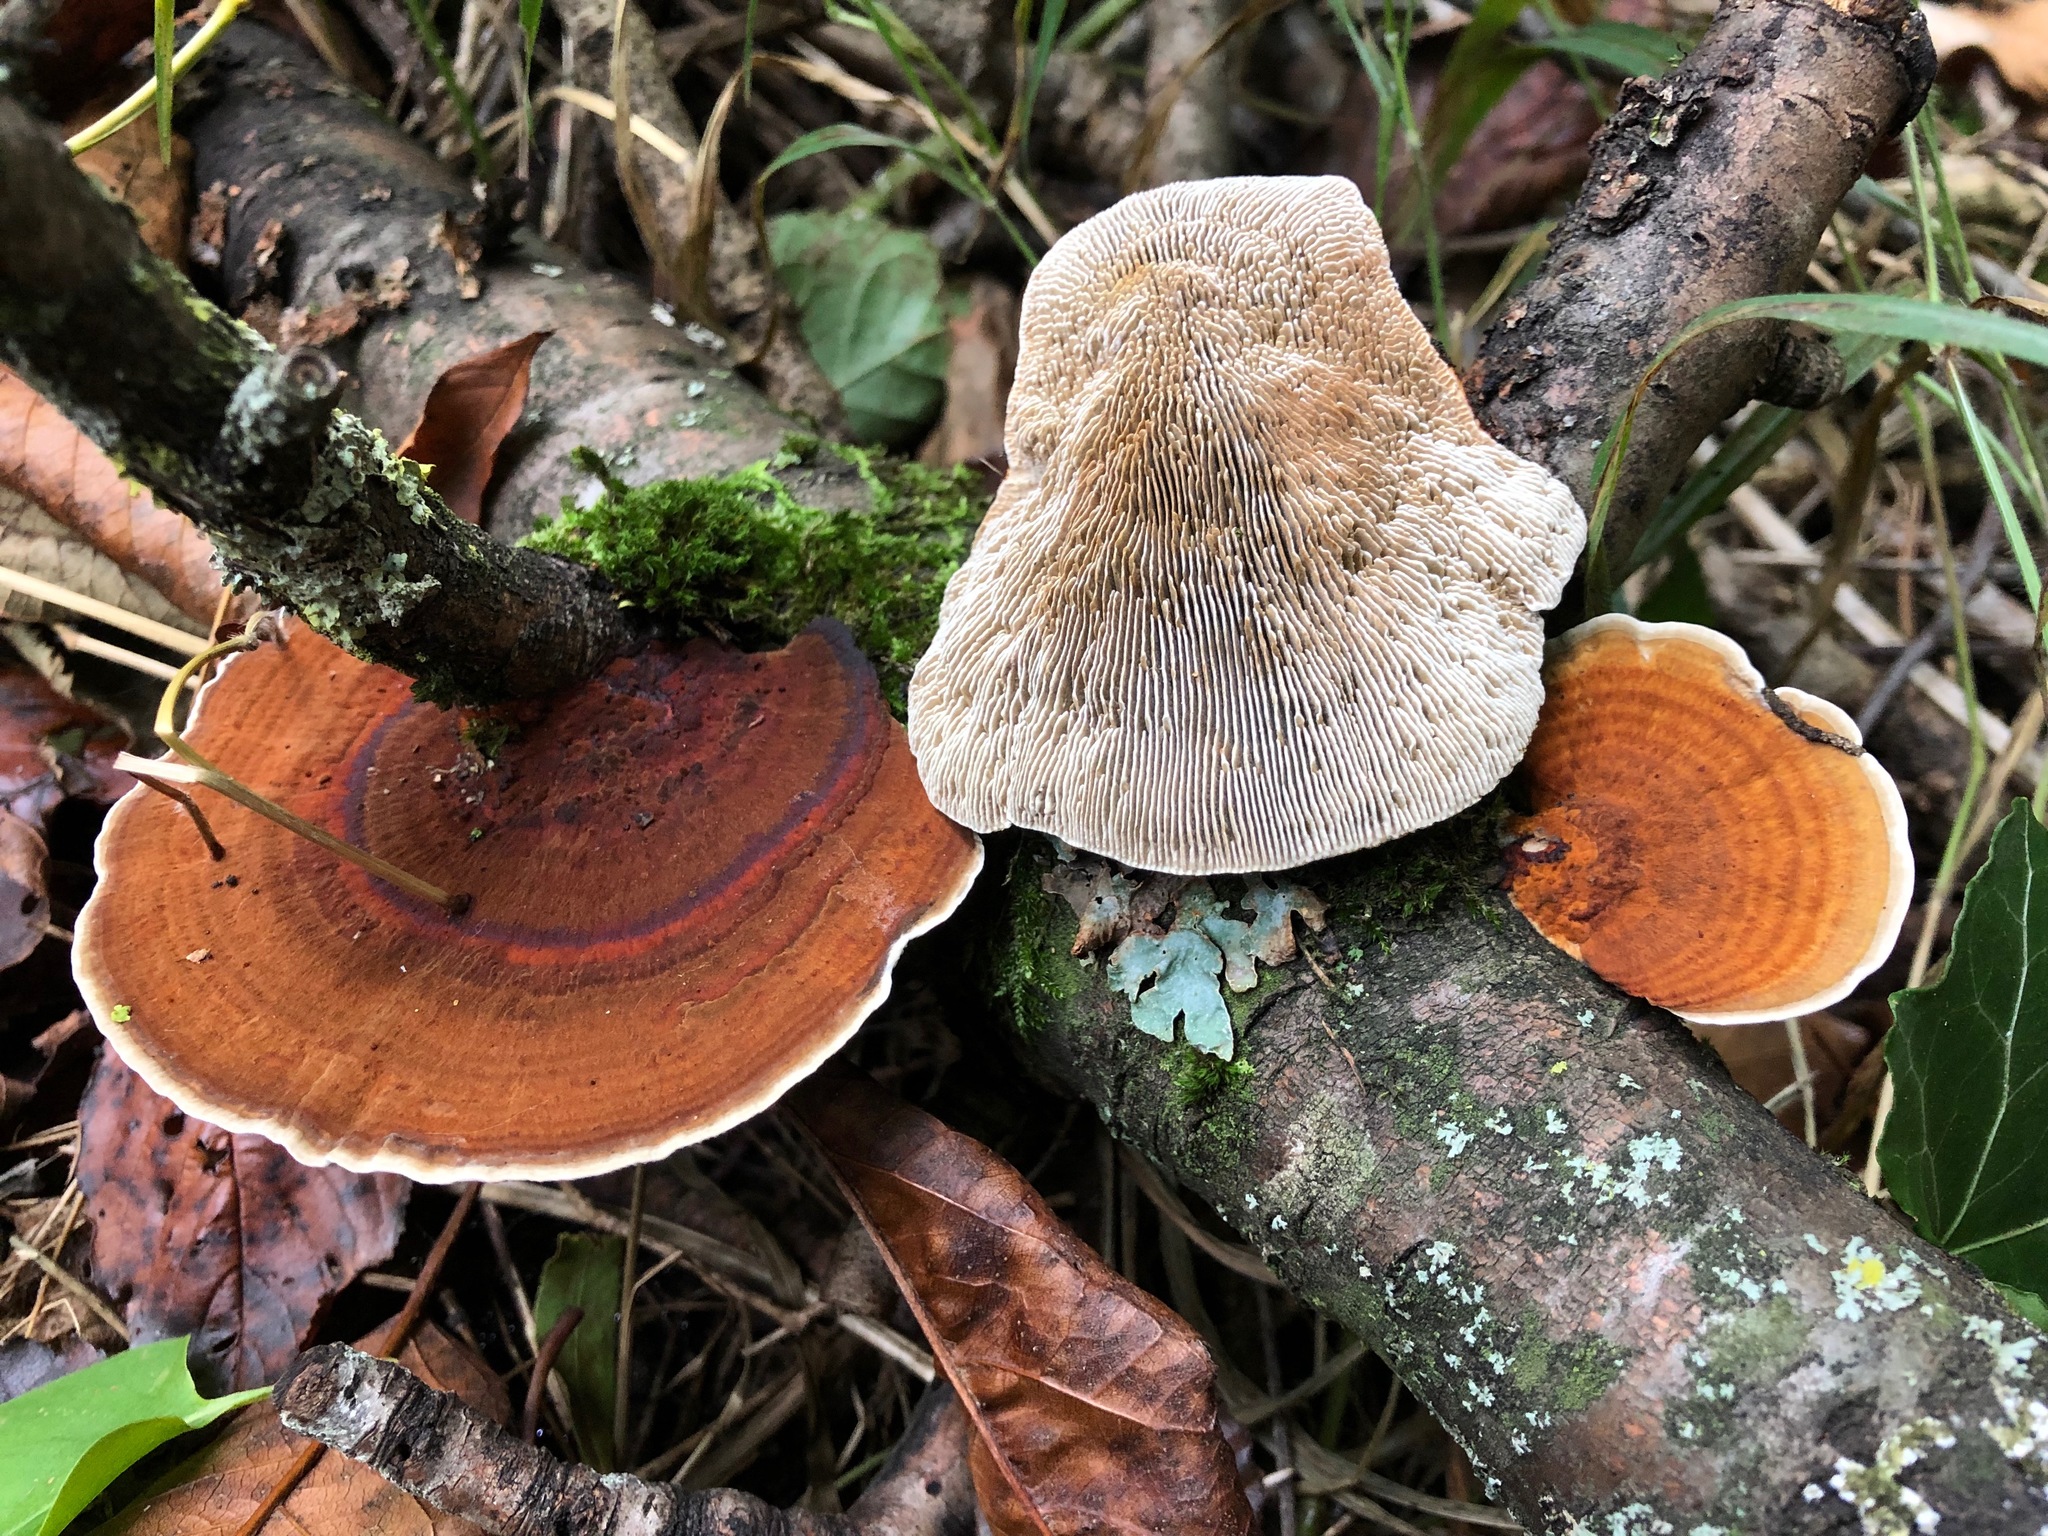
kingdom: Fungi
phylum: Basidiomycota
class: Agaricomycetes
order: Polyporales
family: Polyporaceae
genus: Daedaleopsis
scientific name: Daedaleopsis tricolor
